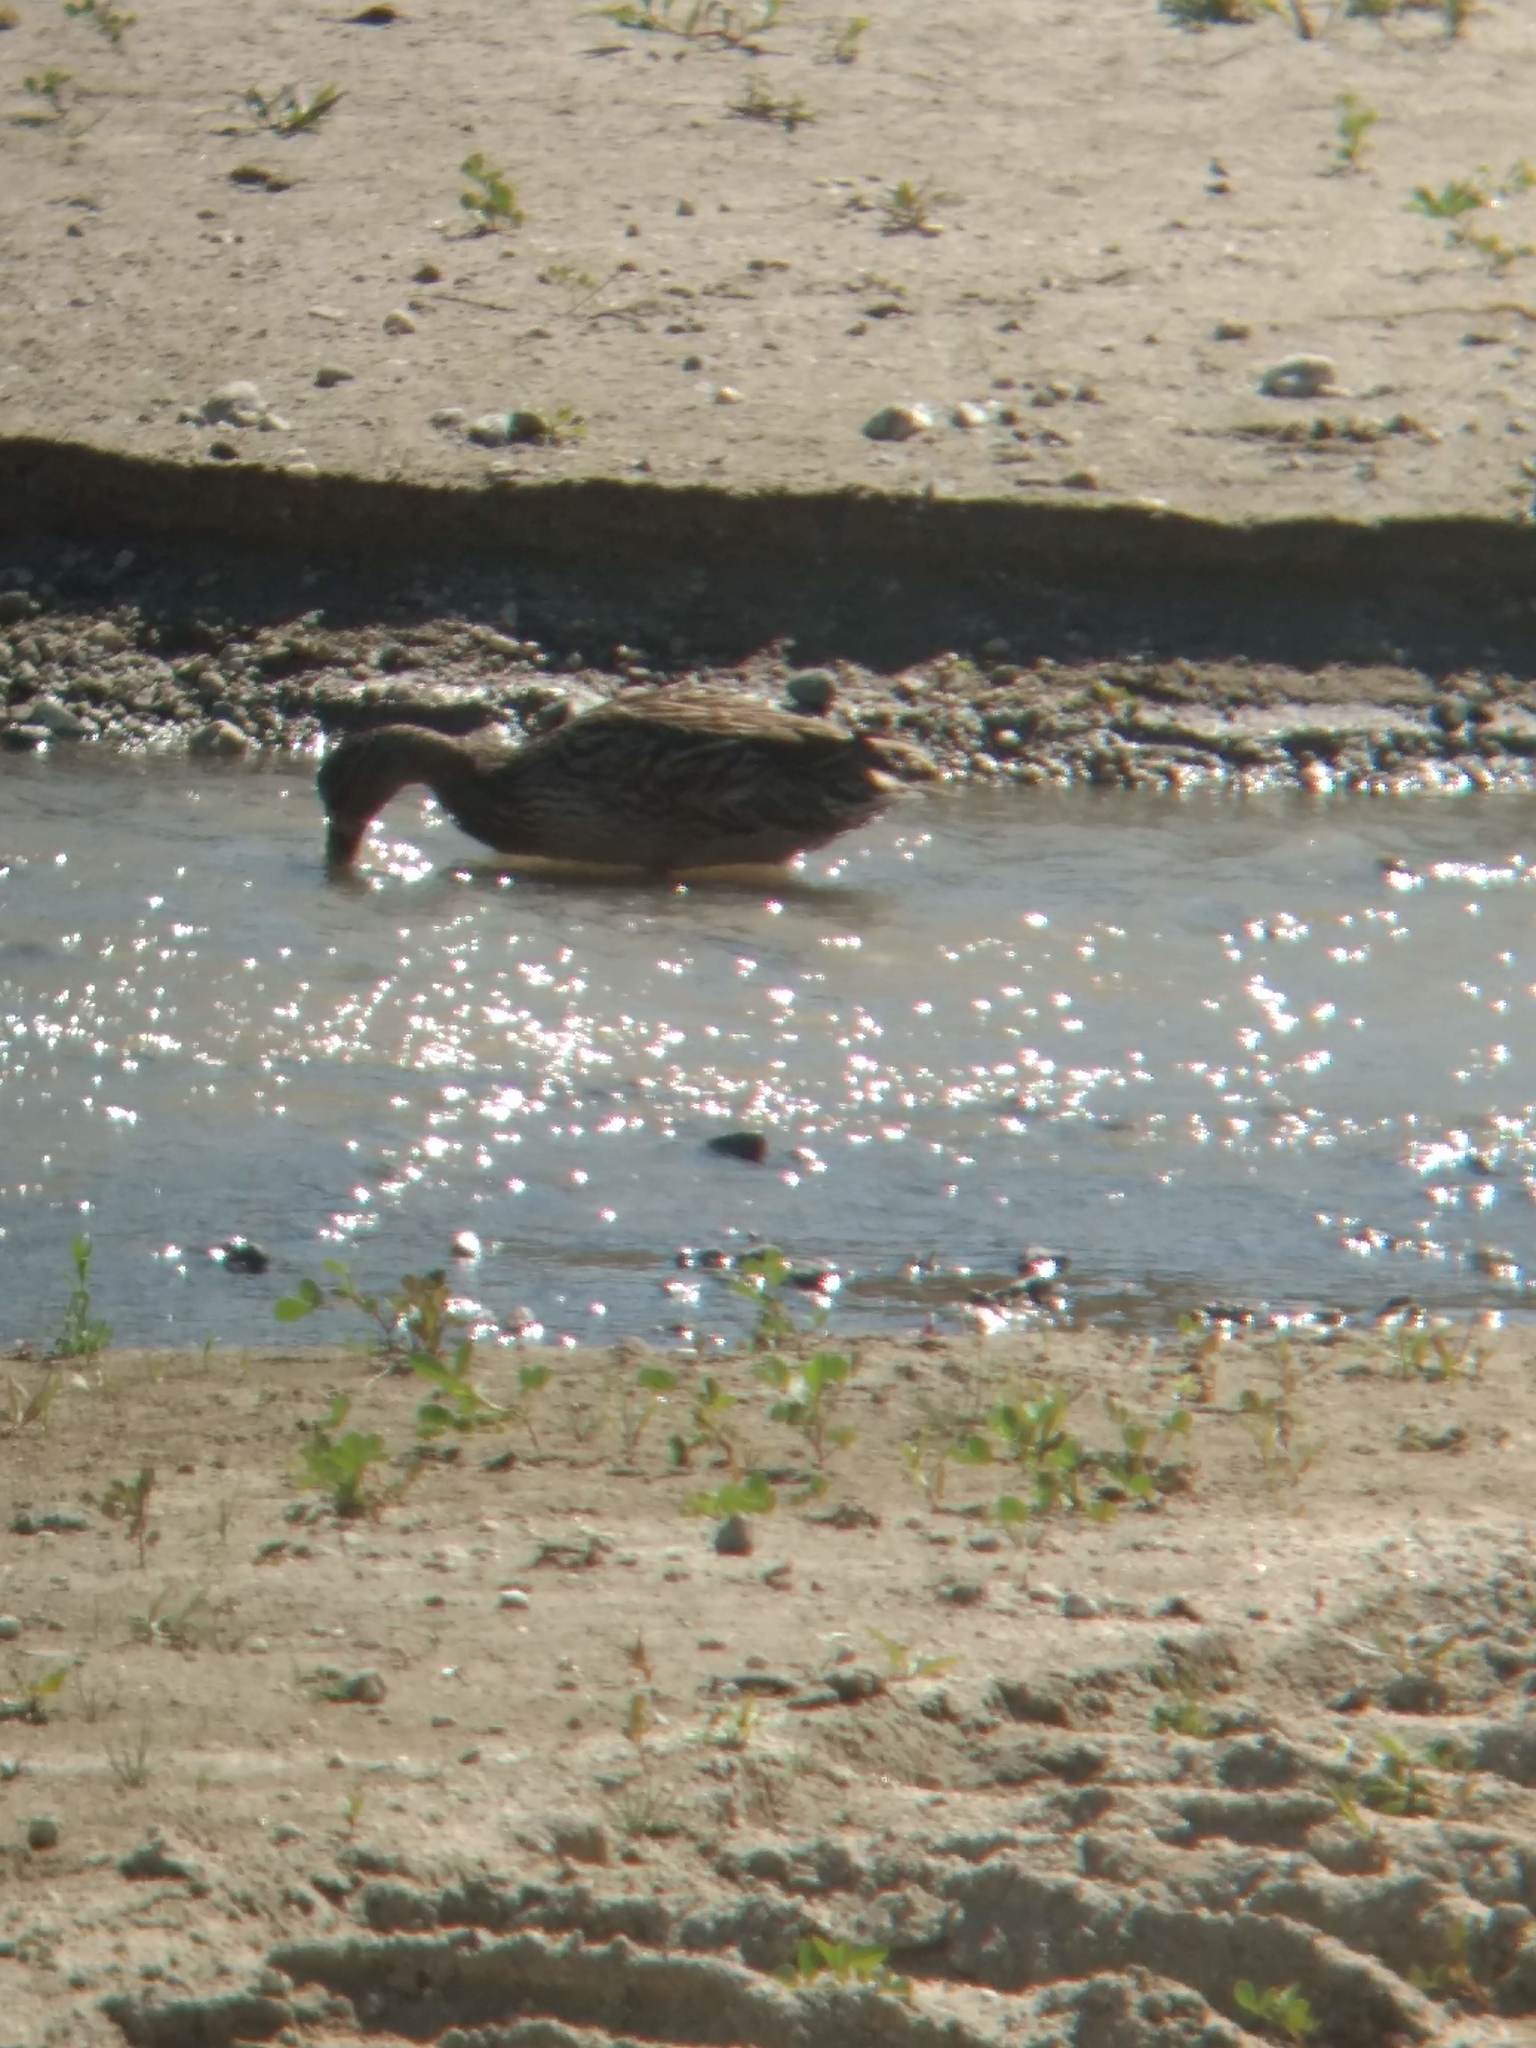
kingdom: Animalia
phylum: Chordata
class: Aves
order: Anseriformes
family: Anatidae
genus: Anas
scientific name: Anas platyrhynchos
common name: Mallard
